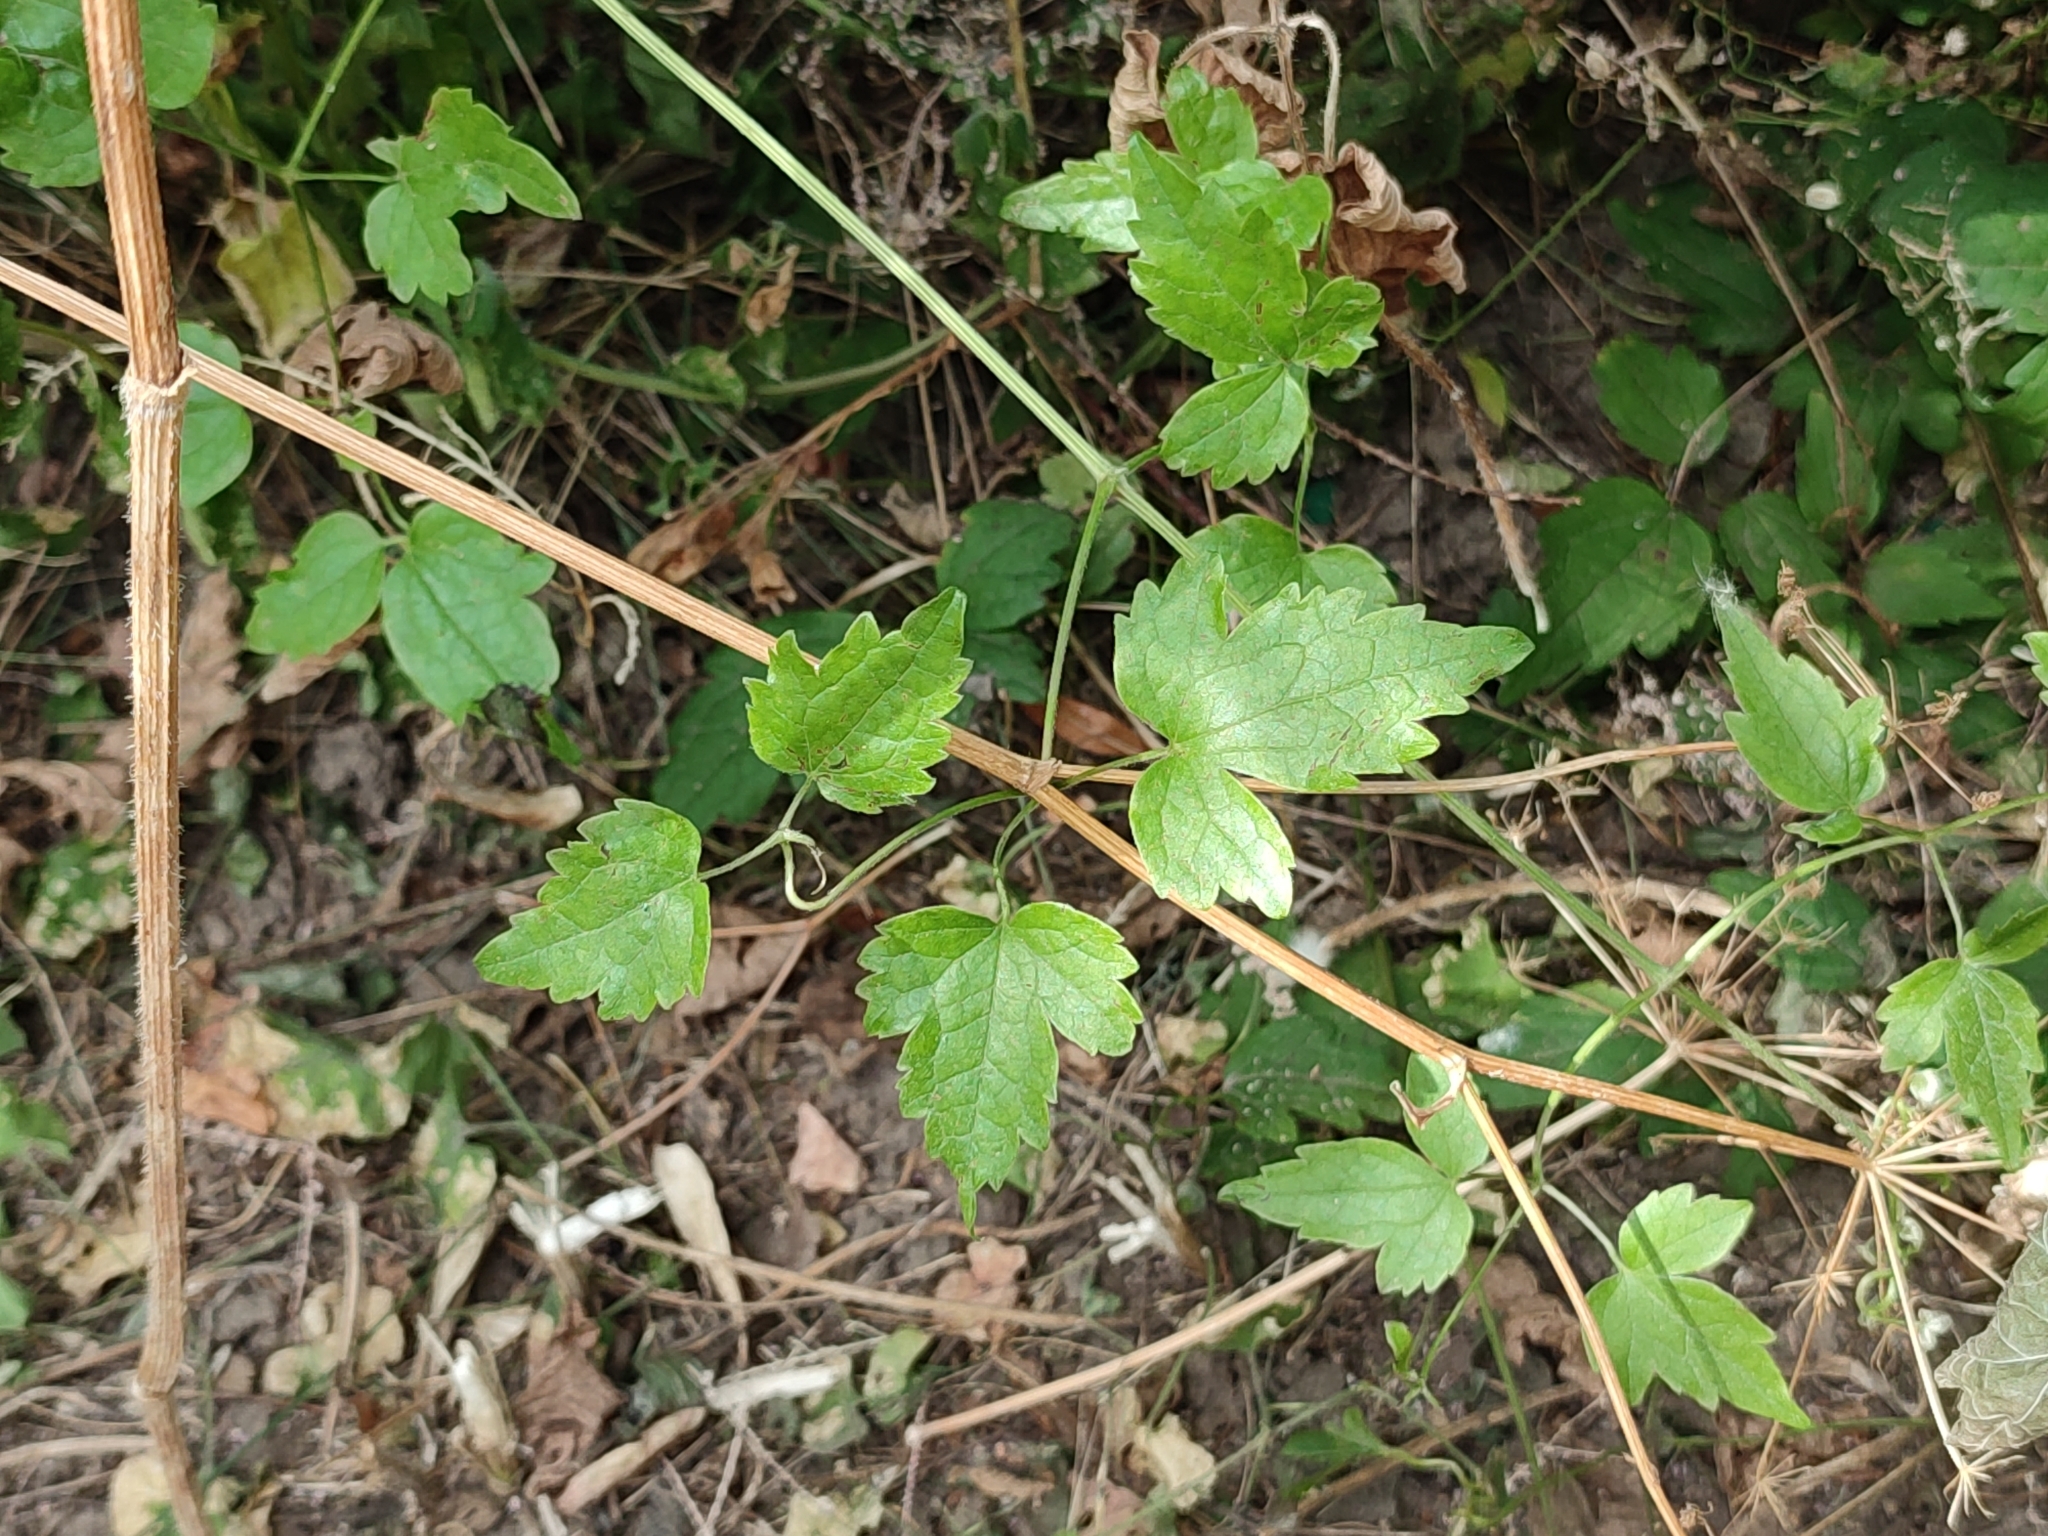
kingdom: Plantae
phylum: Tracheophyta
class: Magnoliopsida
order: Ranunculales
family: Ranunculaceae
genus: Clematis
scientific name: Clematis vitalba
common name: Evergreen clematis
